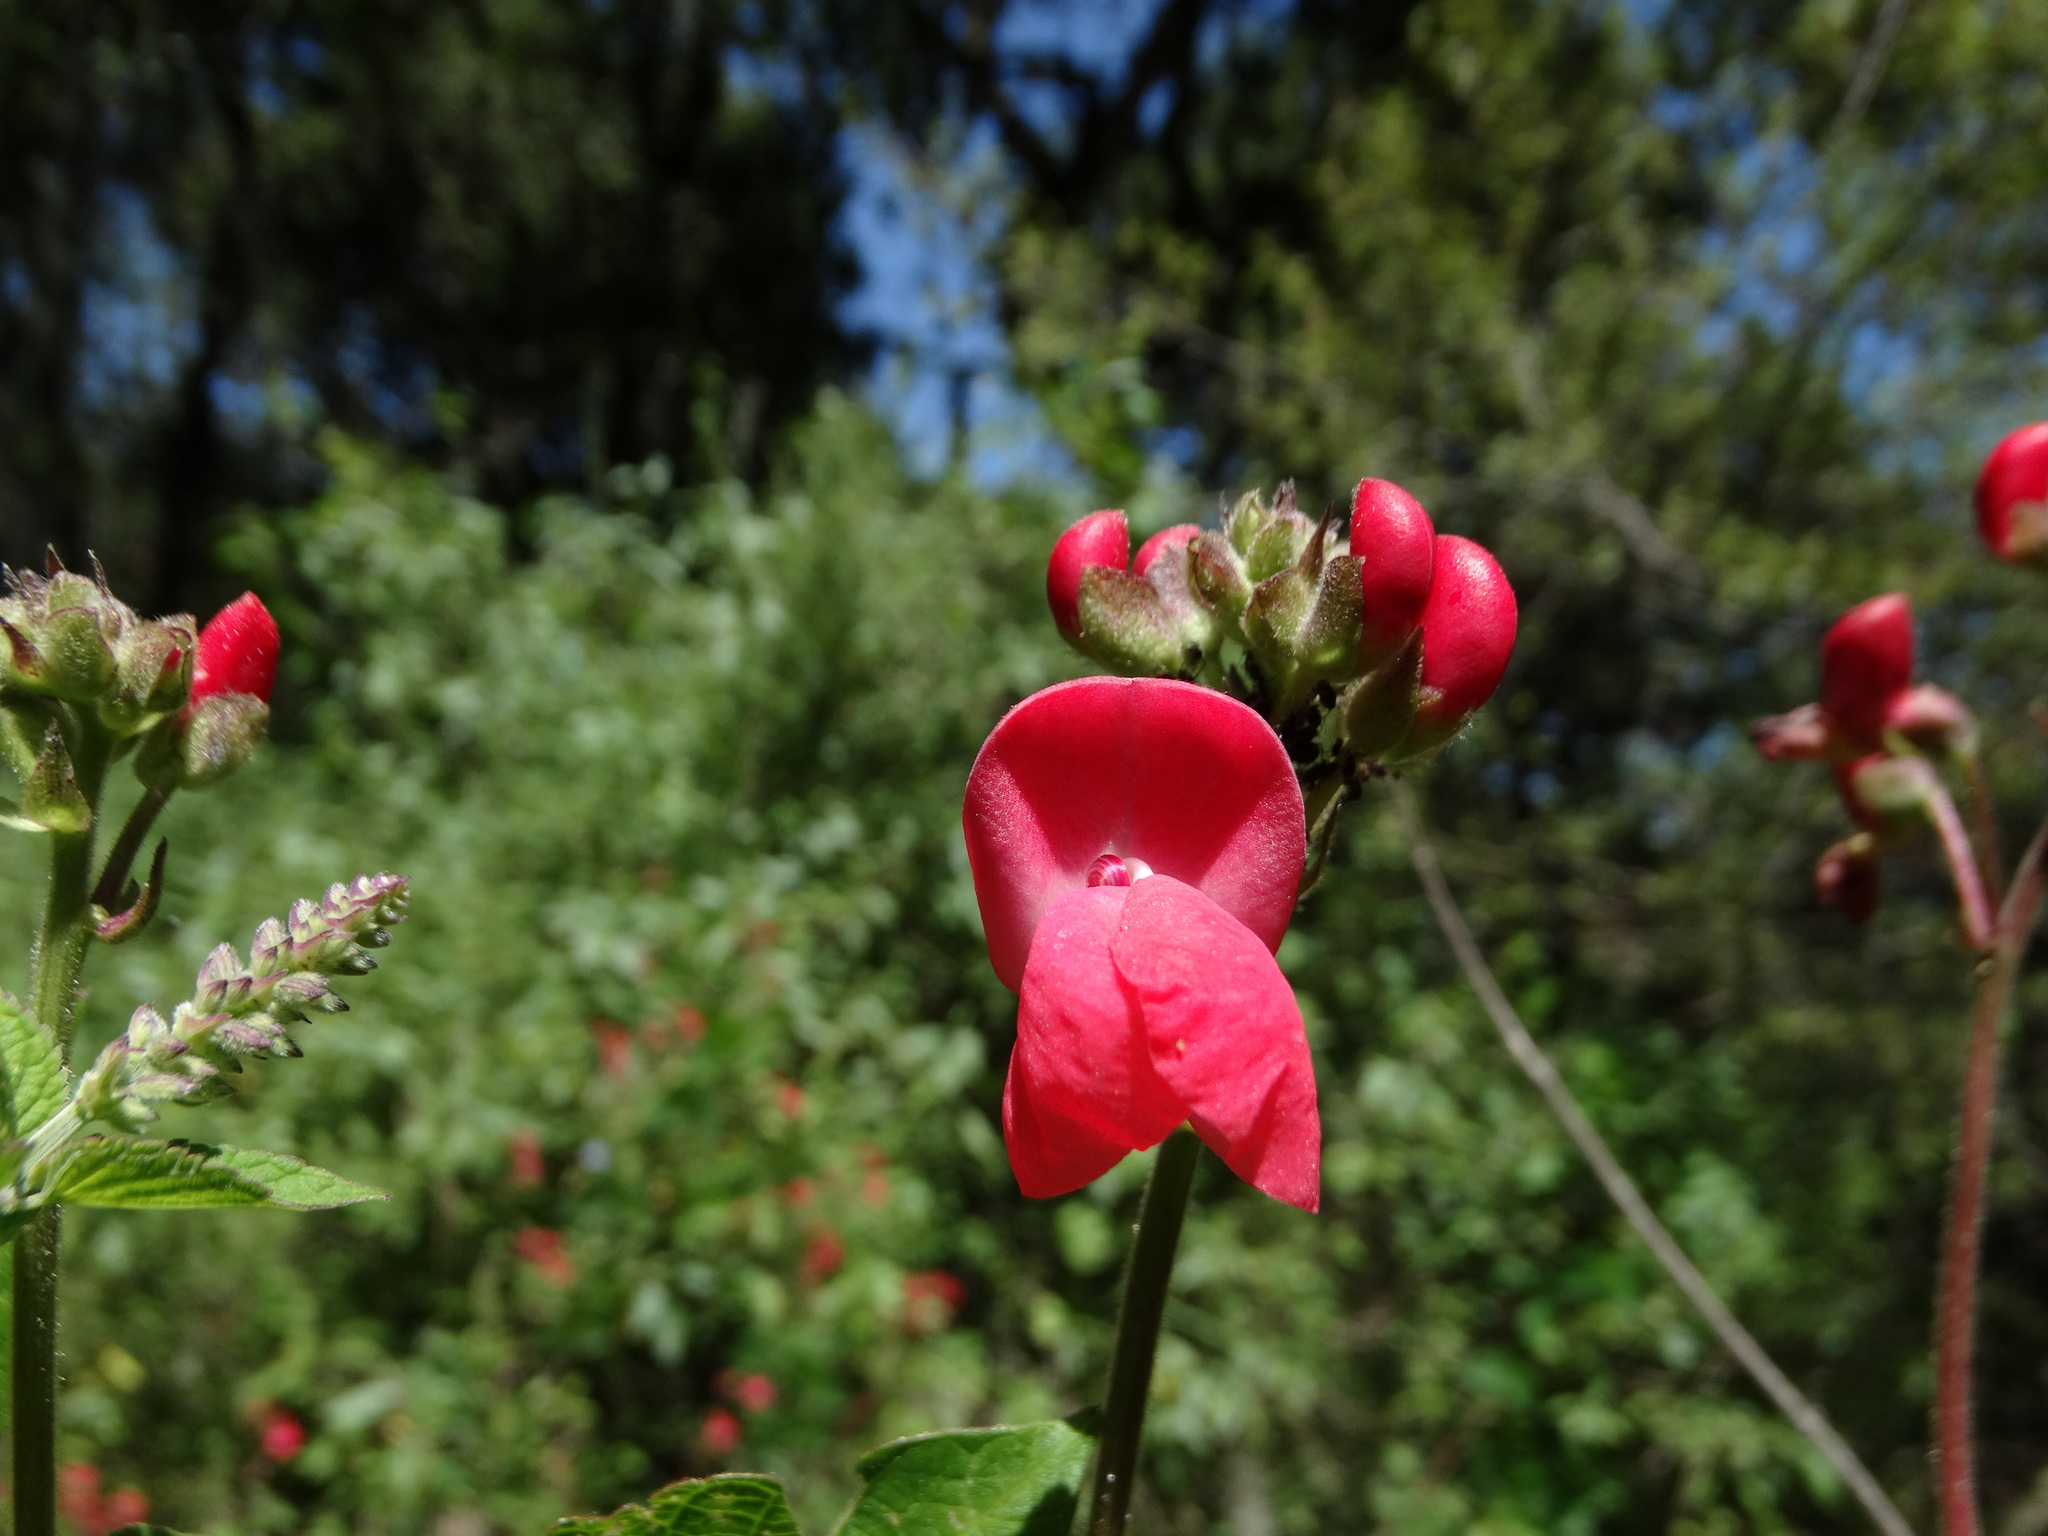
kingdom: Plantae
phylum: Tracheophyta
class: Magnoliopsida
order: Fabales
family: Fabaceae
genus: Phaseolus
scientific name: Phaseolus coccineus
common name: Runner bean
